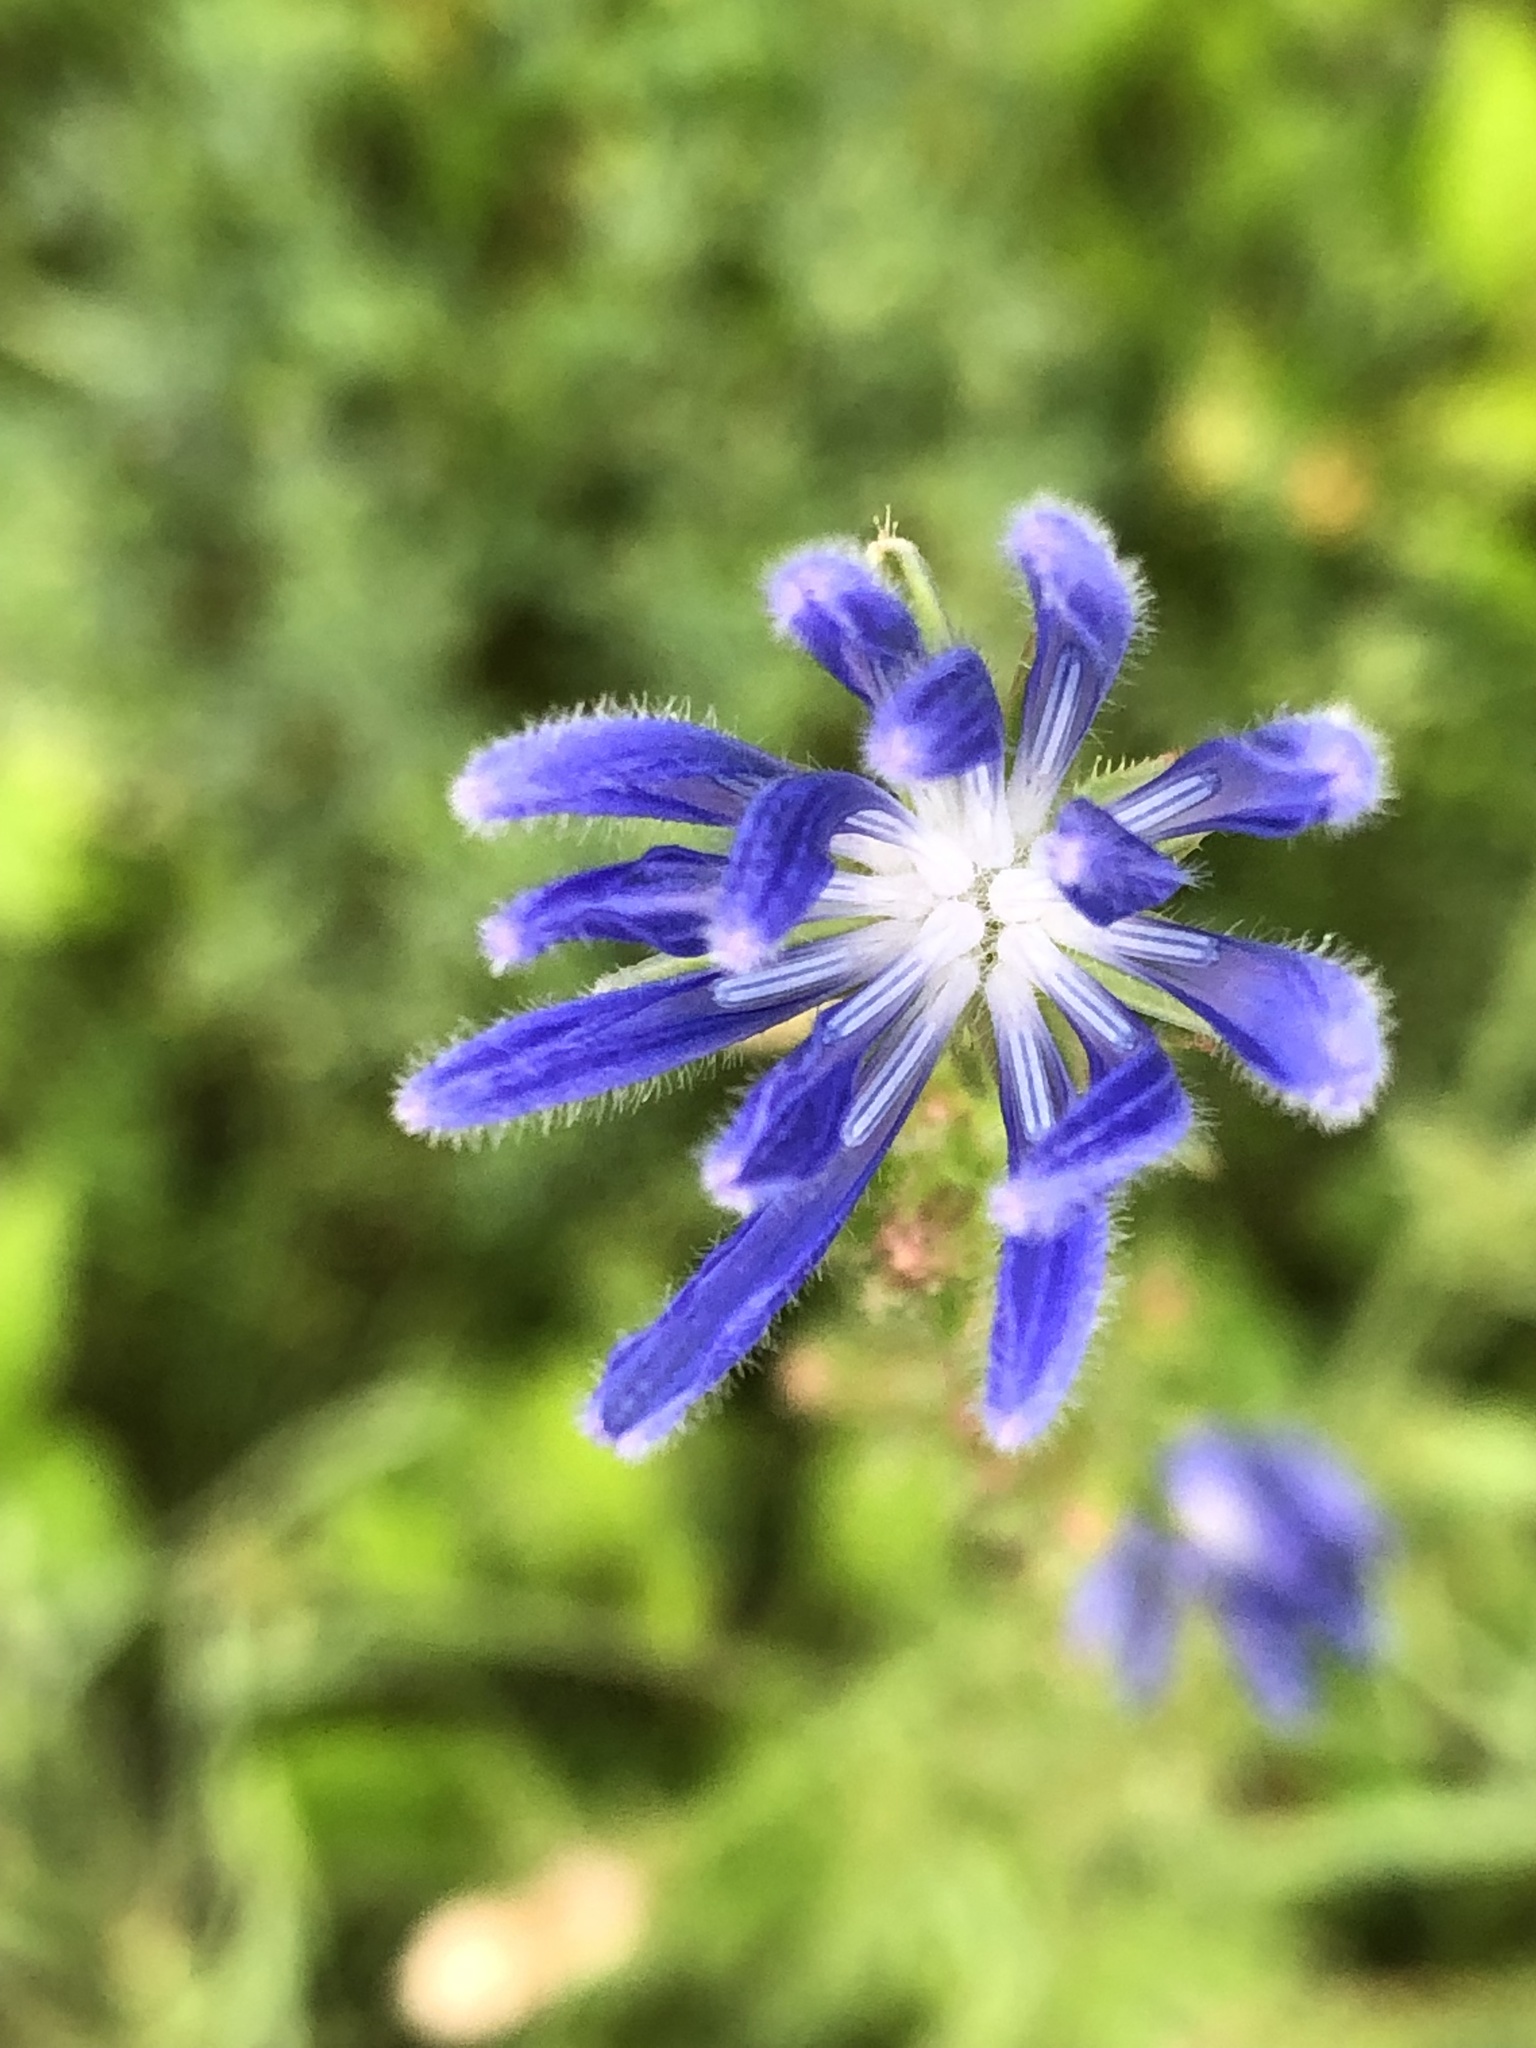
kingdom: Plantae
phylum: Tracheophyta
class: Magnoliopsida
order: Asterales
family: Asteraceae
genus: Cichorium
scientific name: Cichorium intybus
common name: Chicory
